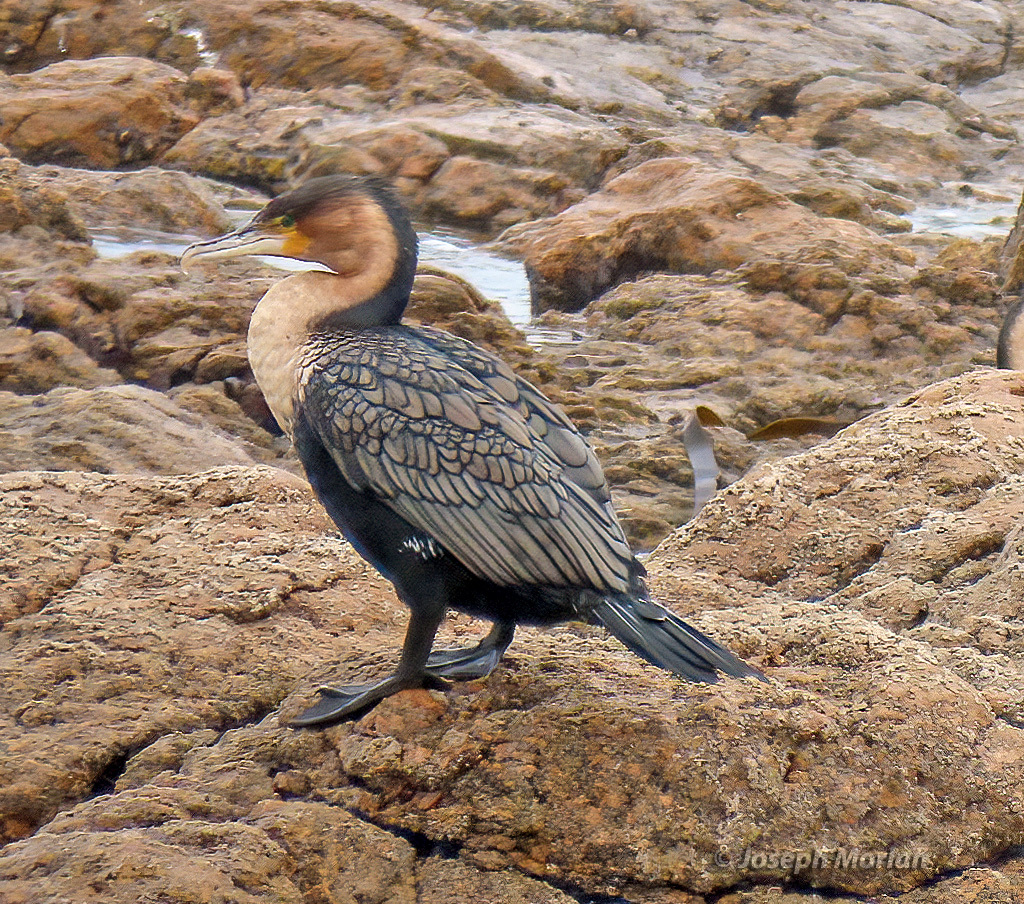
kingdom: Animalia
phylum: Chordata
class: Aves
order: Suliformes
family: Phalacrocoracidae
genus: Phalacrocorax
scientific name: Phalacrocorax carbo
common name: Great cormorant
